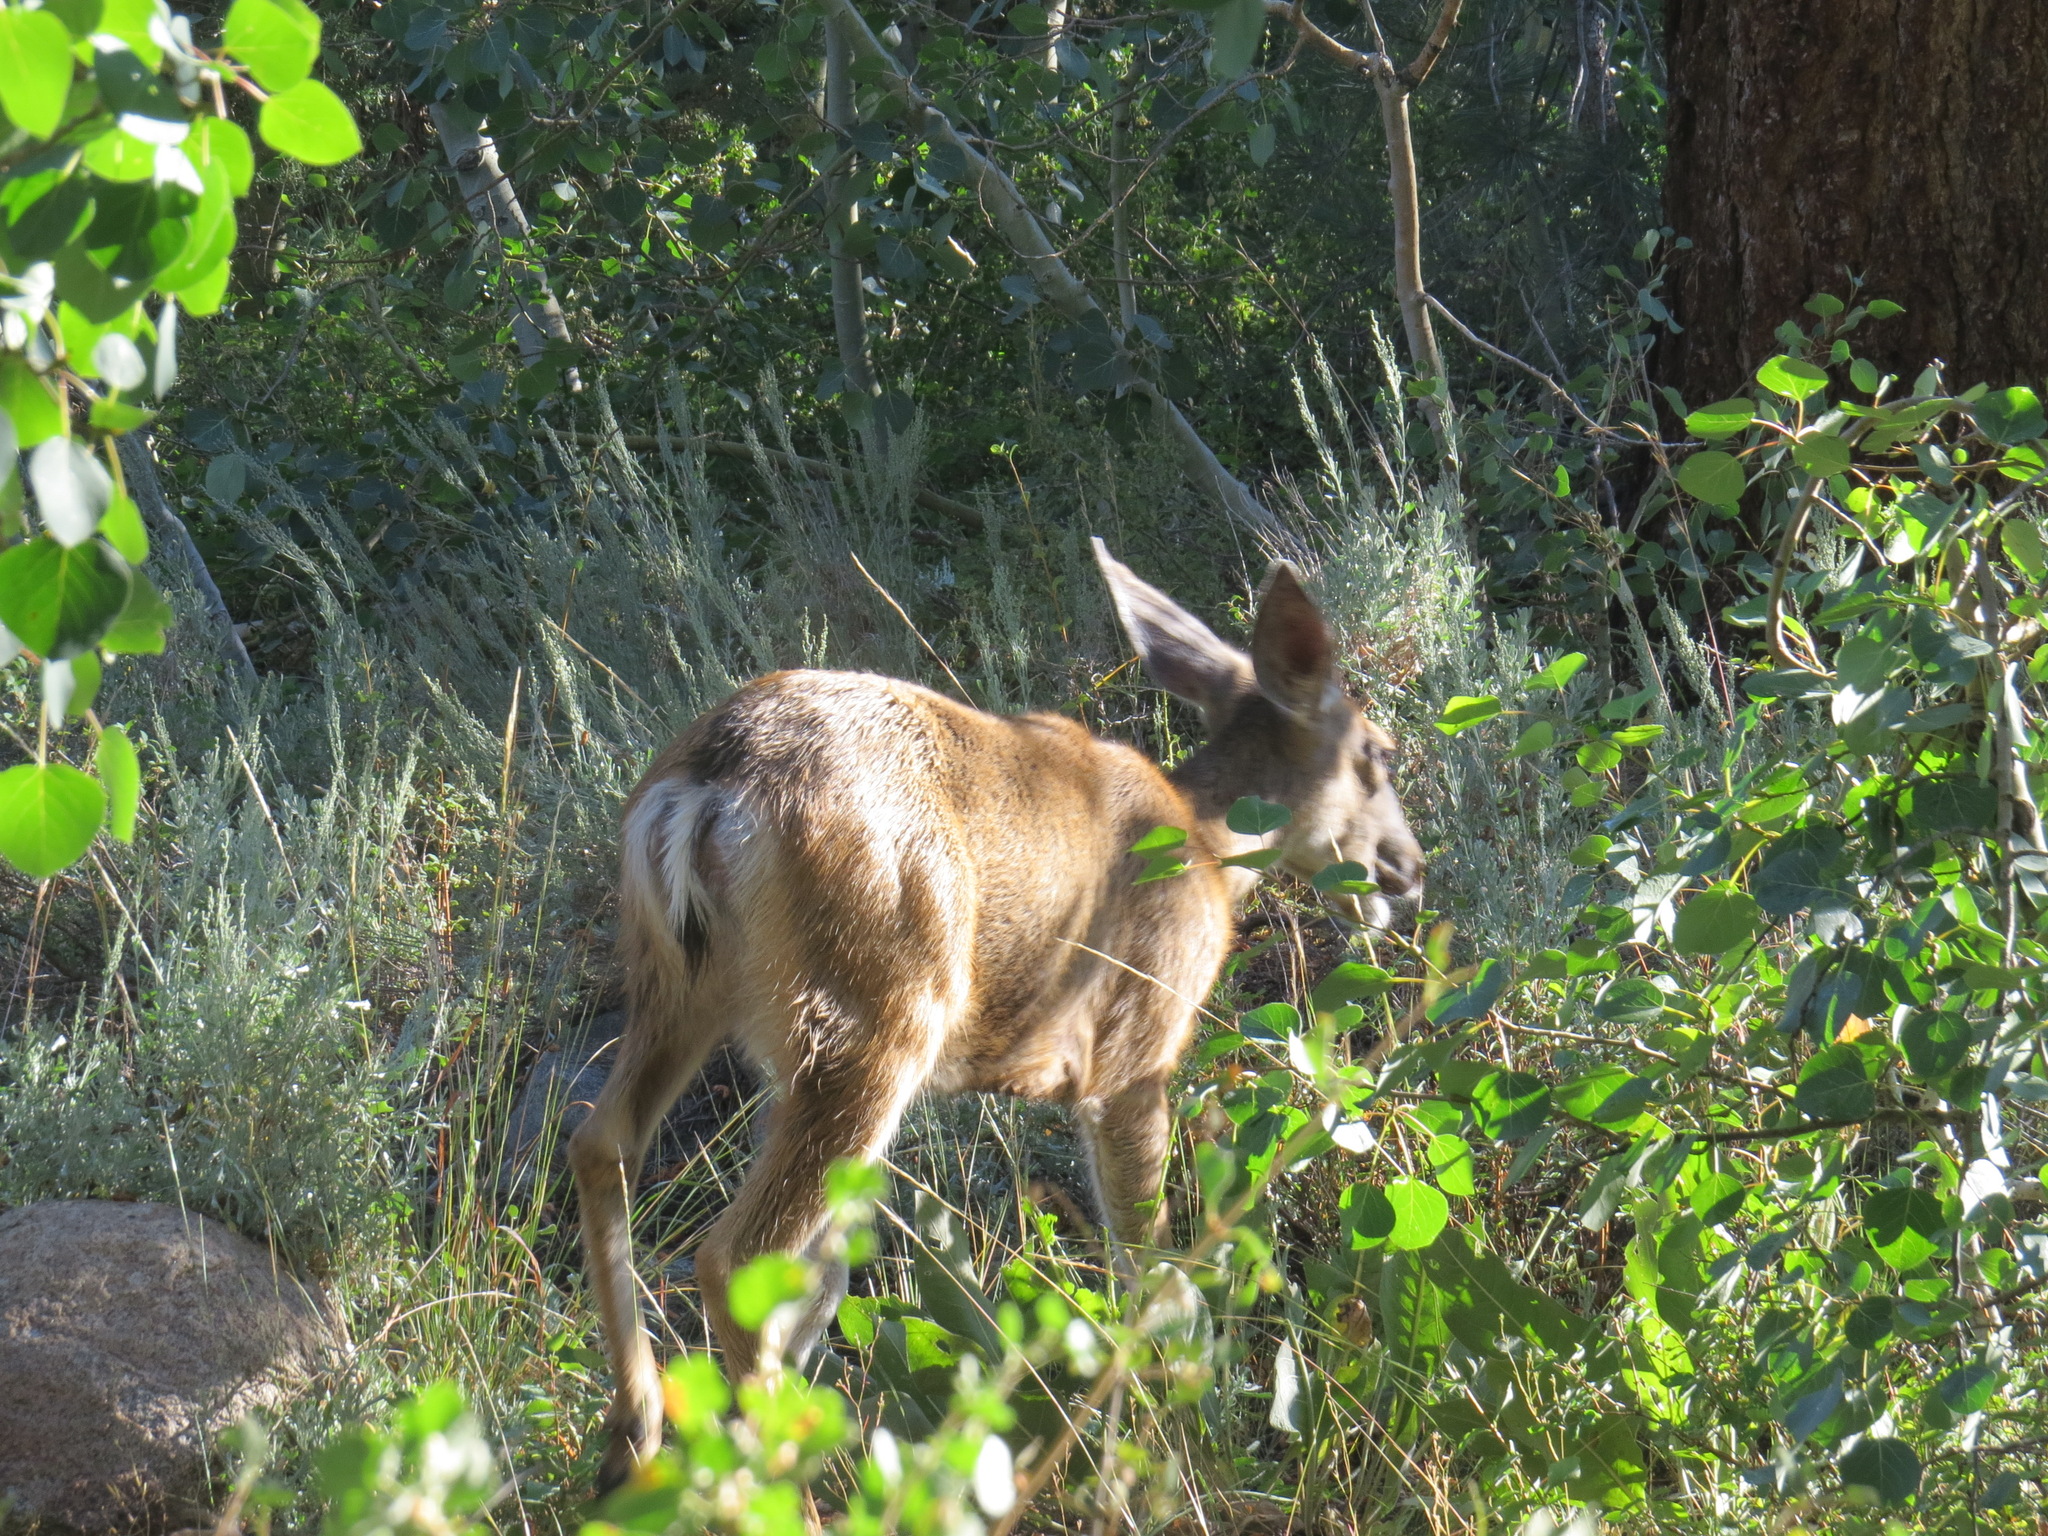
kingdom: Animalia
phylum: Chordata
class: Mammalia
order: Artiodactyla
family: Cervidae
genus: Odocoileus
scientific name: Odocoileus hemionus
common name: Mule deer
